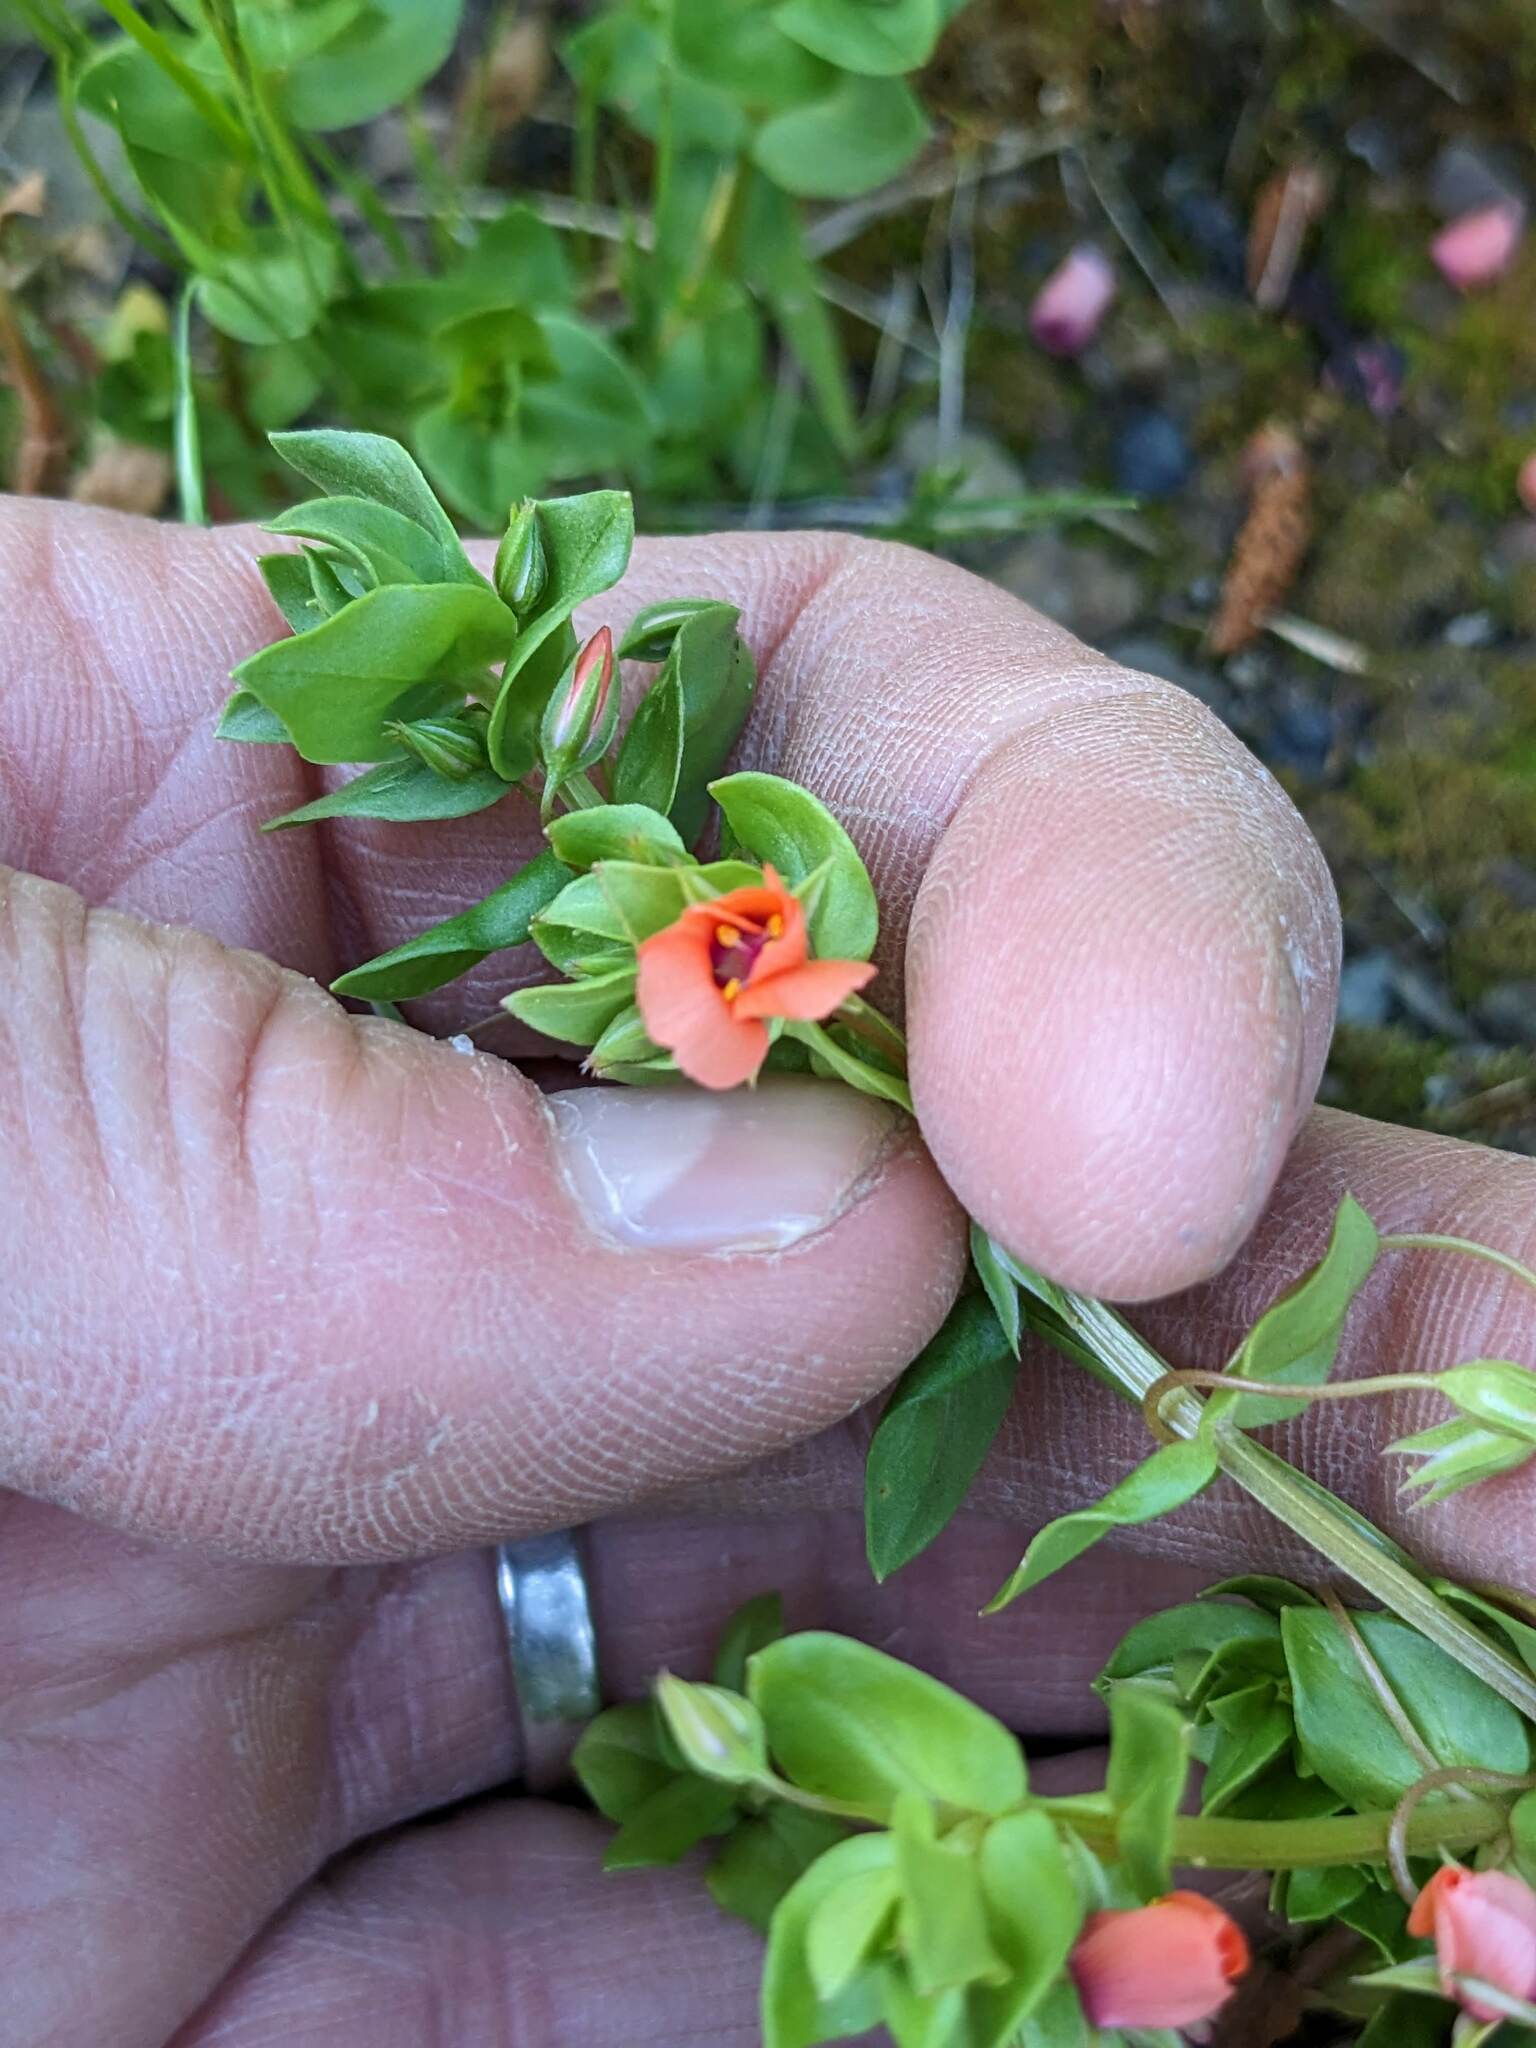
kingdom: Plantae
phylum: Tracheophyta
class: Magnoliopsida
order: Ericales
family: Primulaceae
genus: Lysimachia
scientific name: Lysimachia arvensis
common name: Scarlet pimpernel
